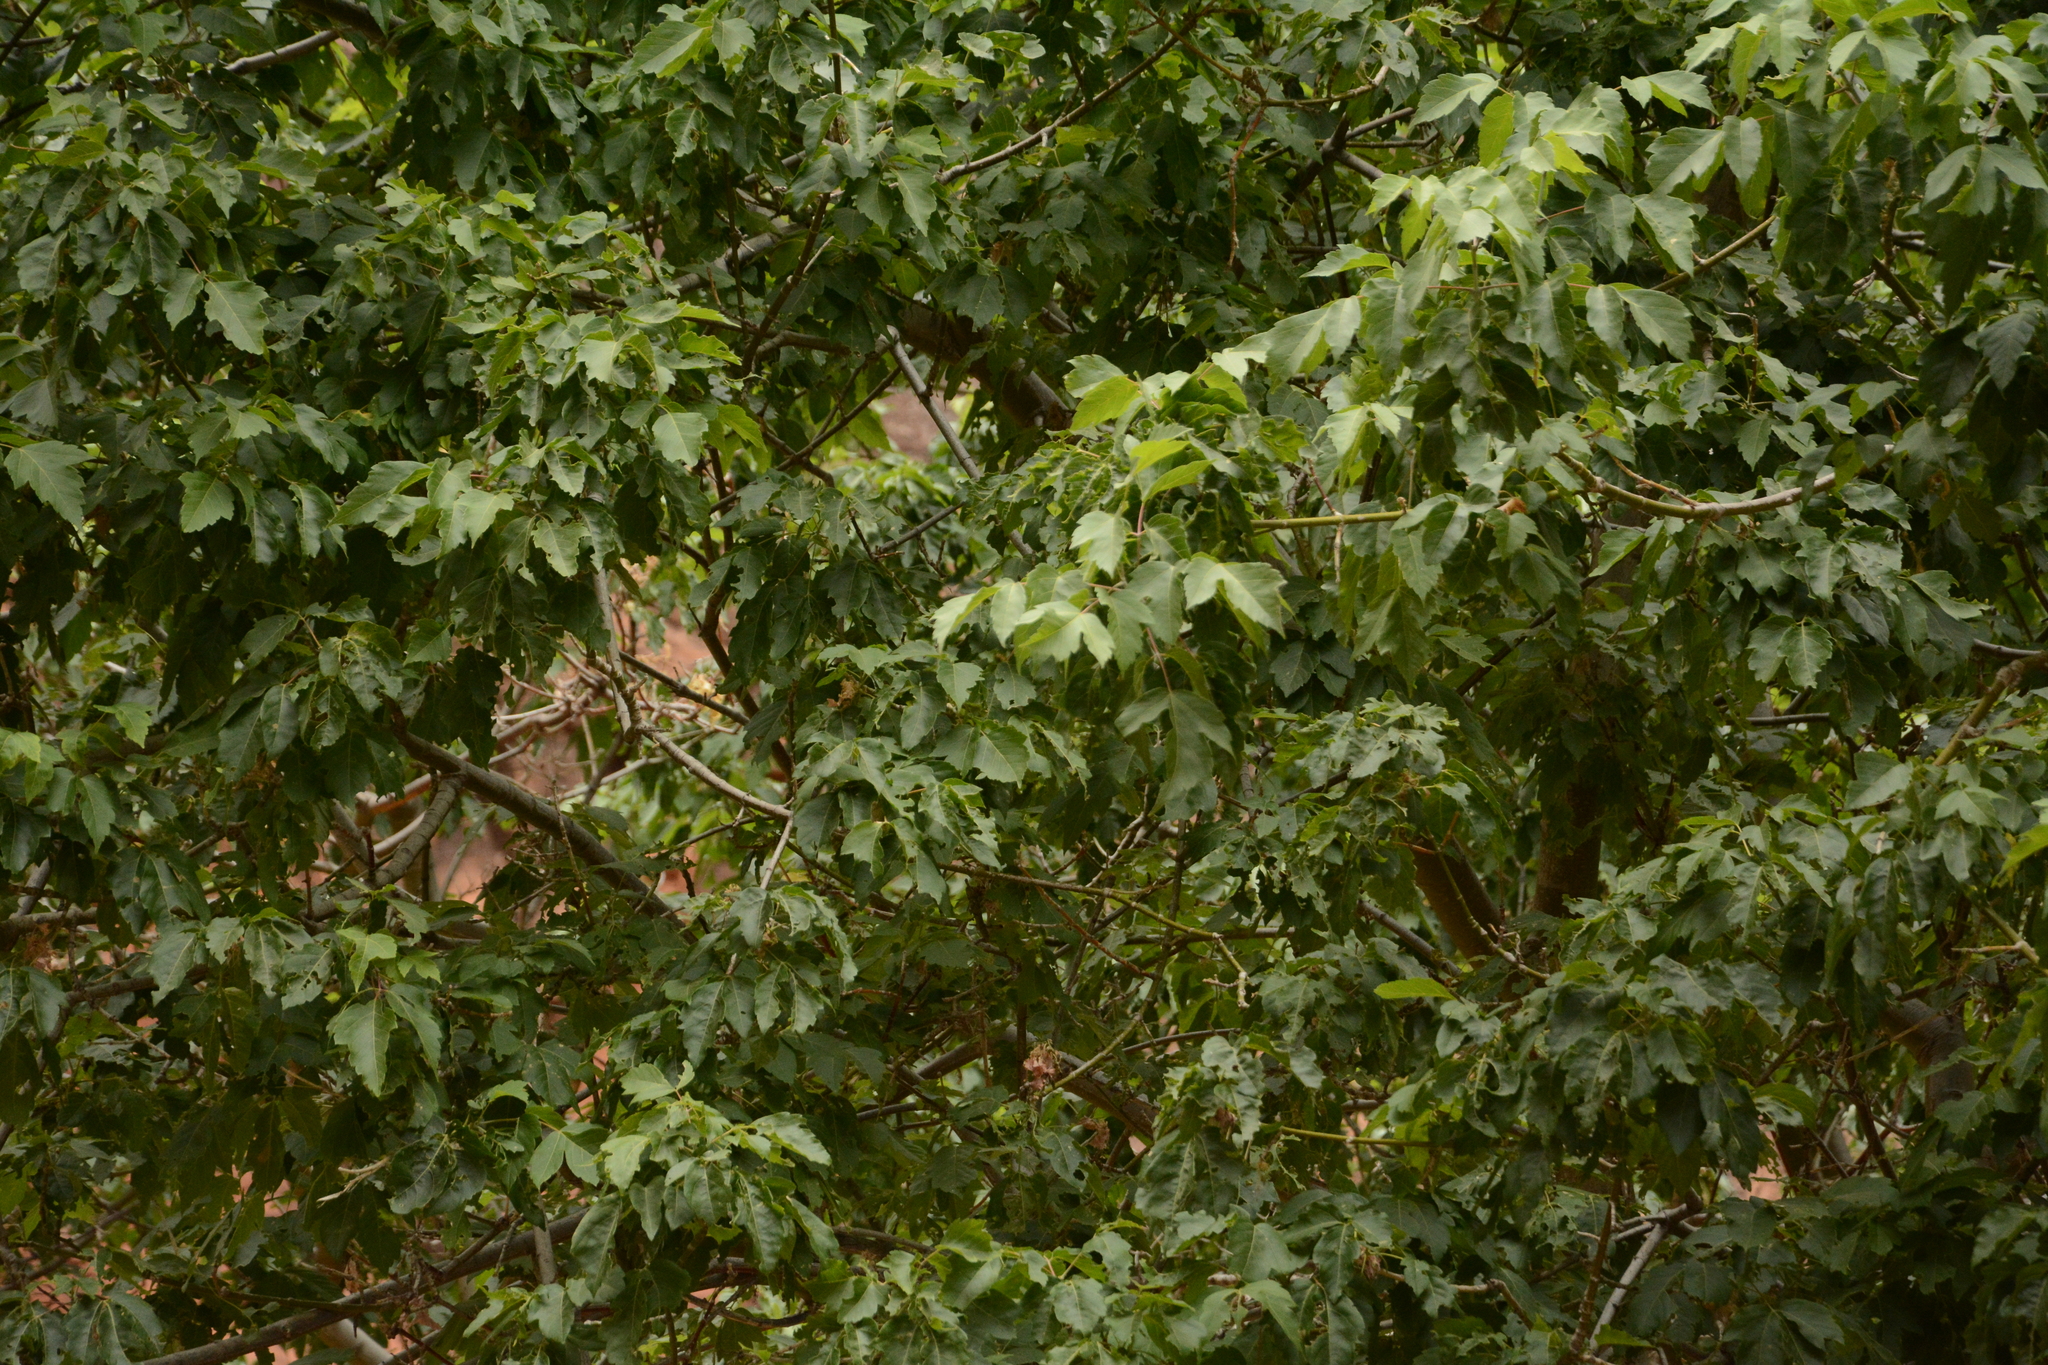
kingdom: Plantae
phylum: Tracheophyta
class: Magnoliopsida
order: Sapindales
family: Sapindaceae
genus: Acer
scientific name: Acer negundo
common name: Ashleaf maple
